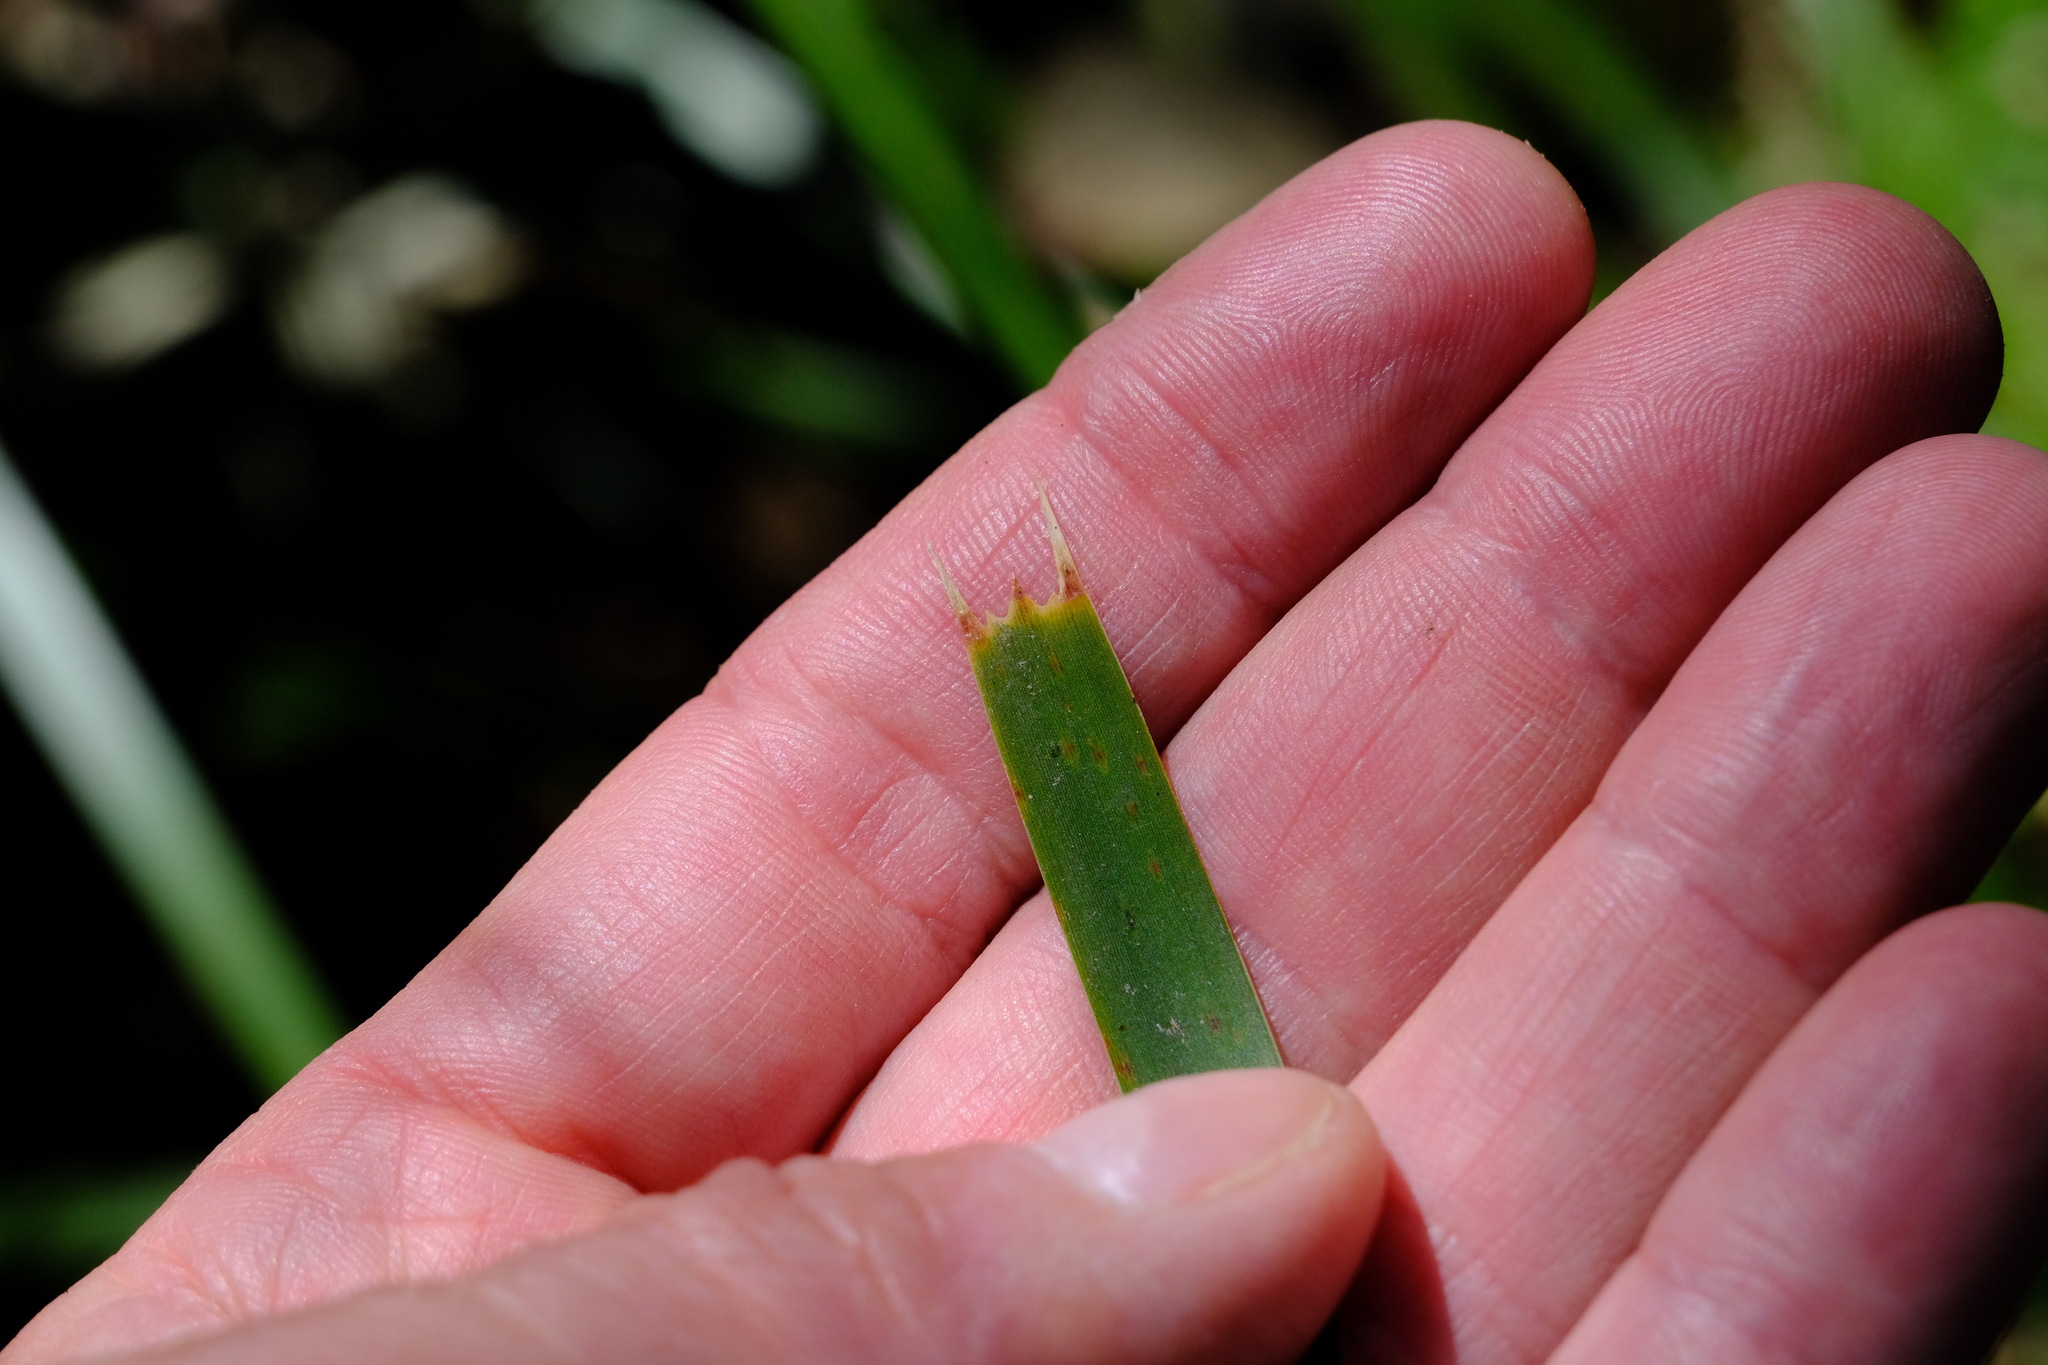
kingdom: Plantae
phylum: Tracheophyta
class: Liliopsida
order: Asparagales
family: Asparagaceae
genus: Lomandra
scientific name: Lomandra longifolia
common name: Longleaf mat-rush
